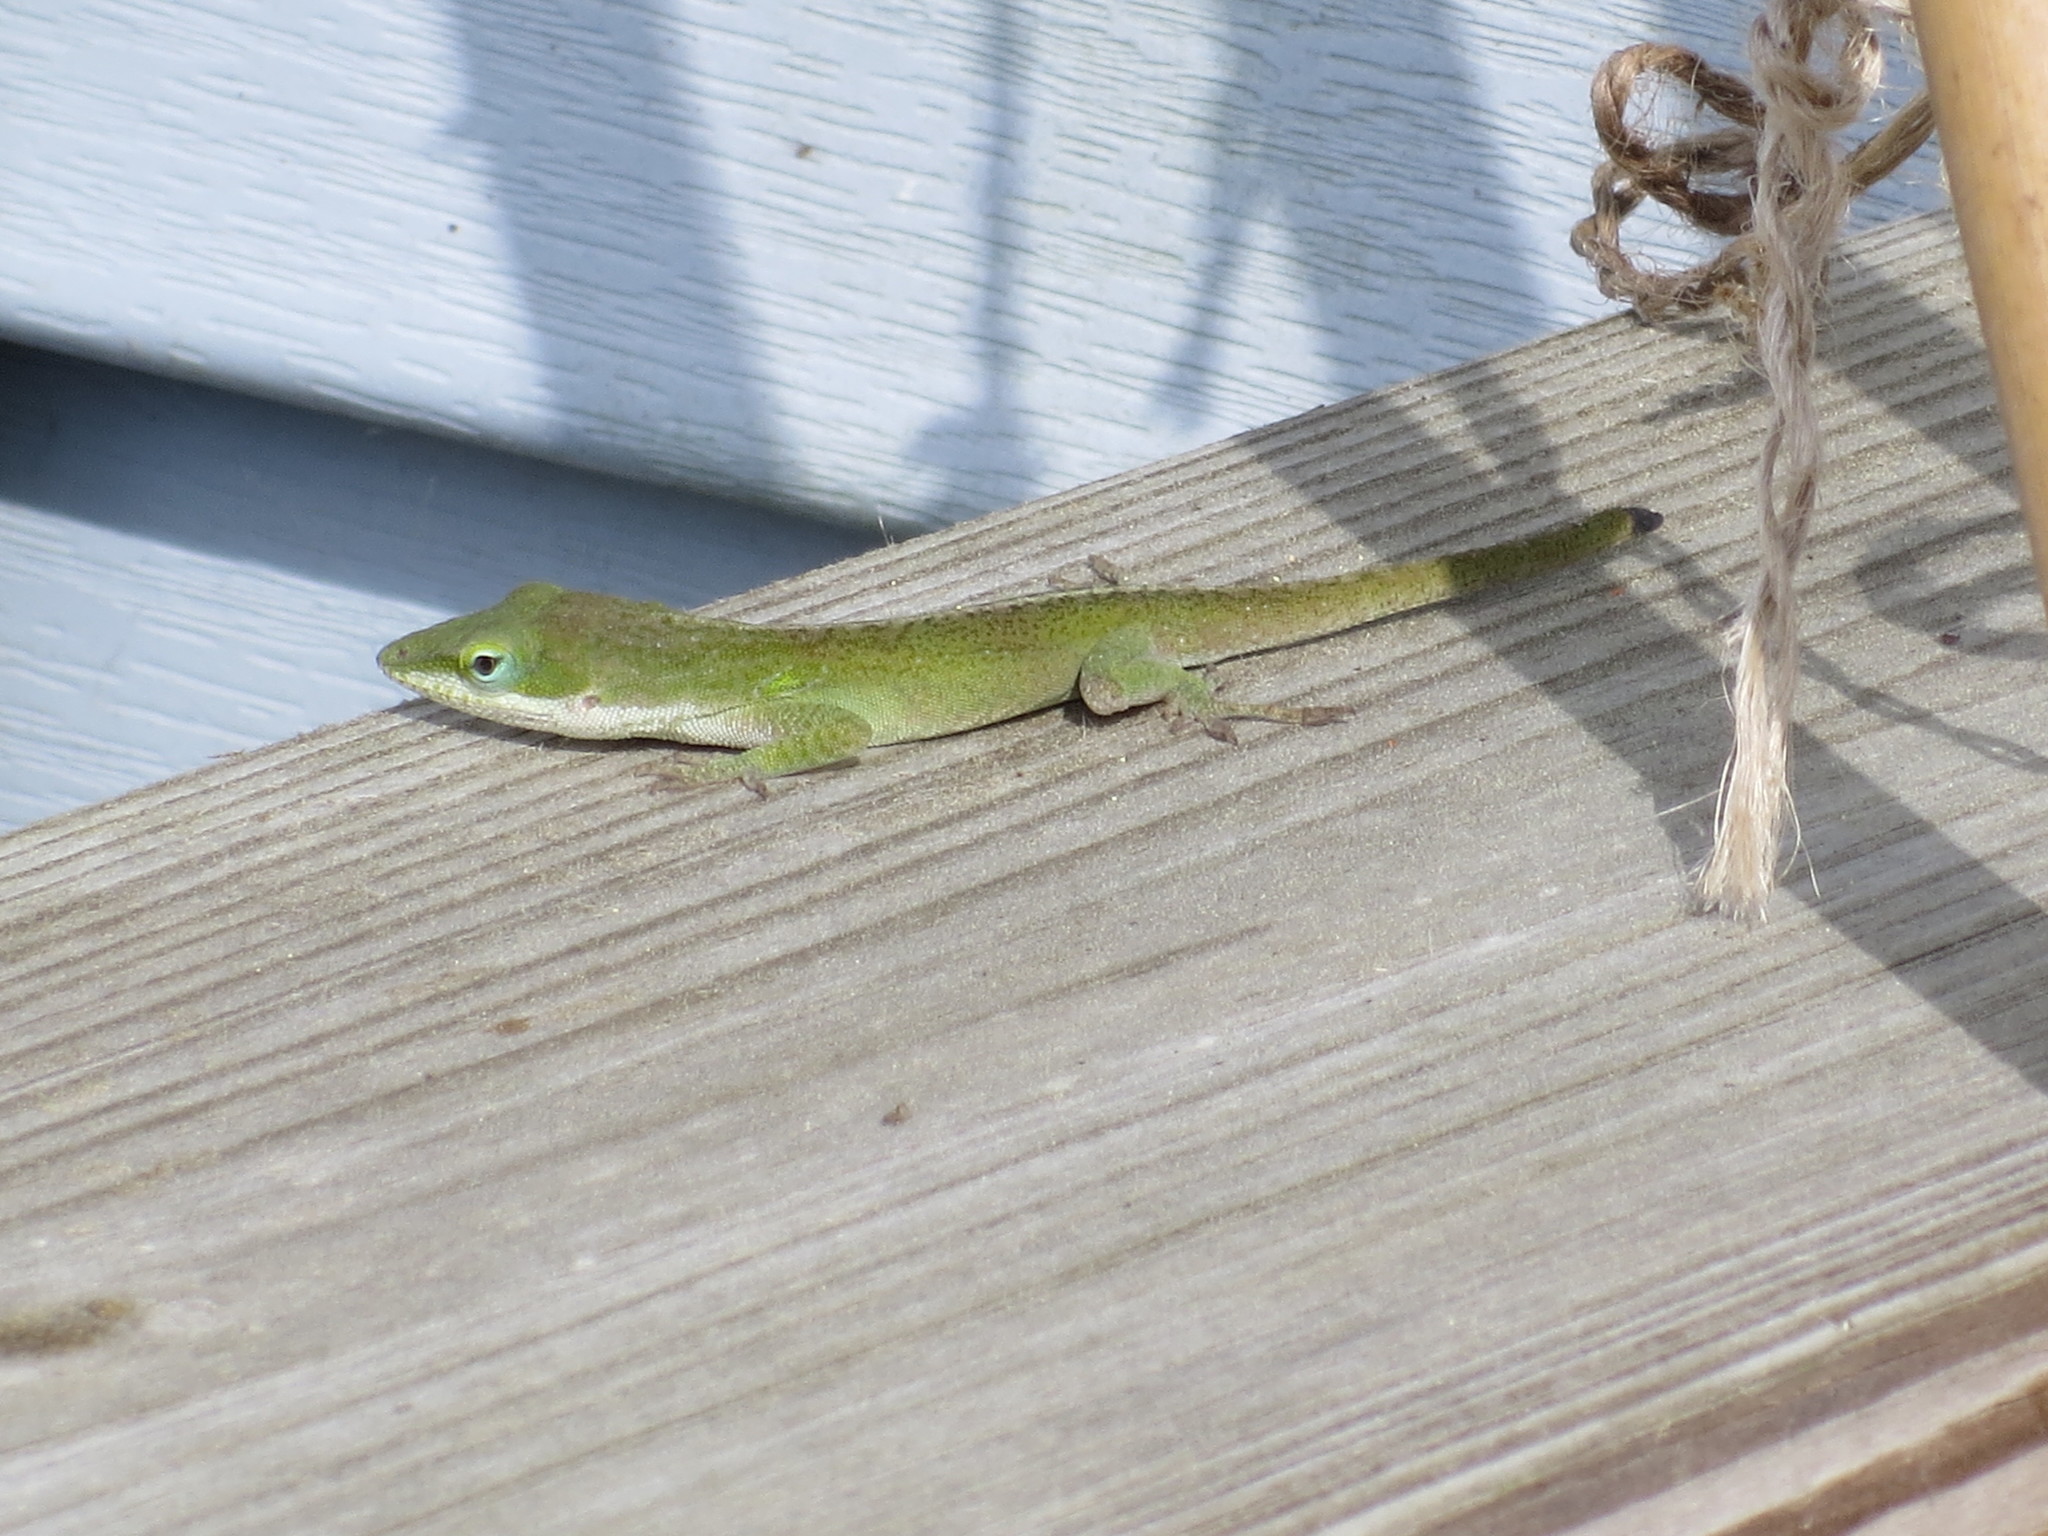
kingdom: Animalia
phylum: Chordata
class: Squamata
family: Dactyloidae
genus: Anolis
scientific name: Anolis carolinensis
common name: Green anole
